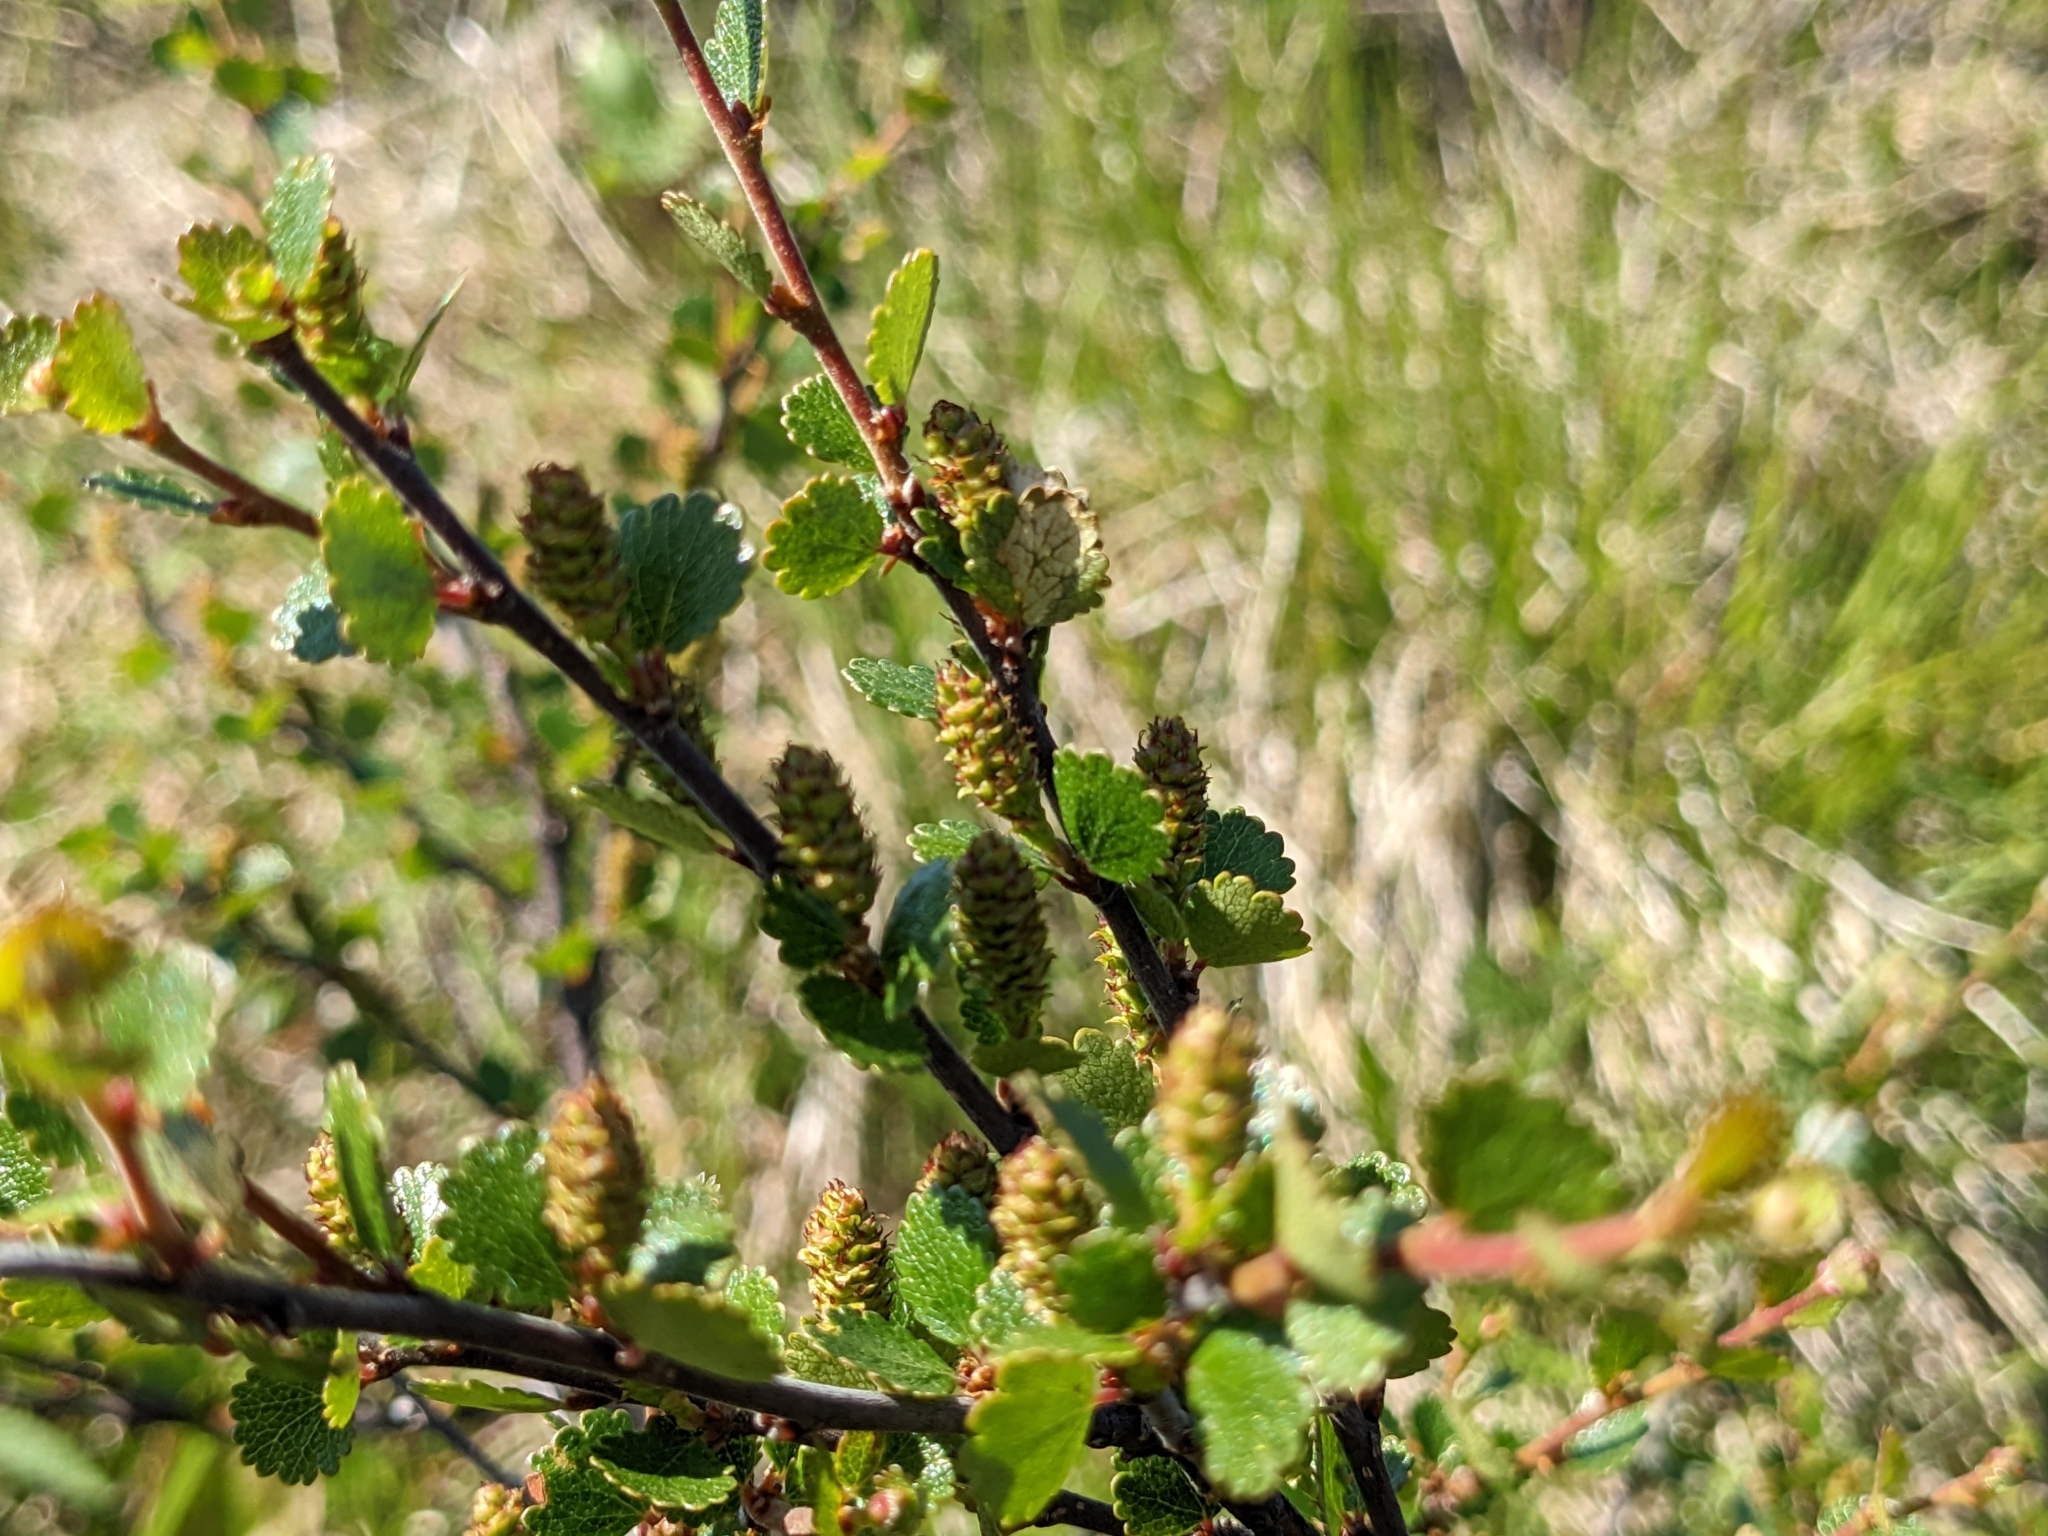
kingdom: Plantae
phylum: Tracheophyta
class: Magnoliopsida
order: Fagales
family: Betulaceae
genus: Betula
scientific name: Betula nana
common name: Arctic dwarf birch
